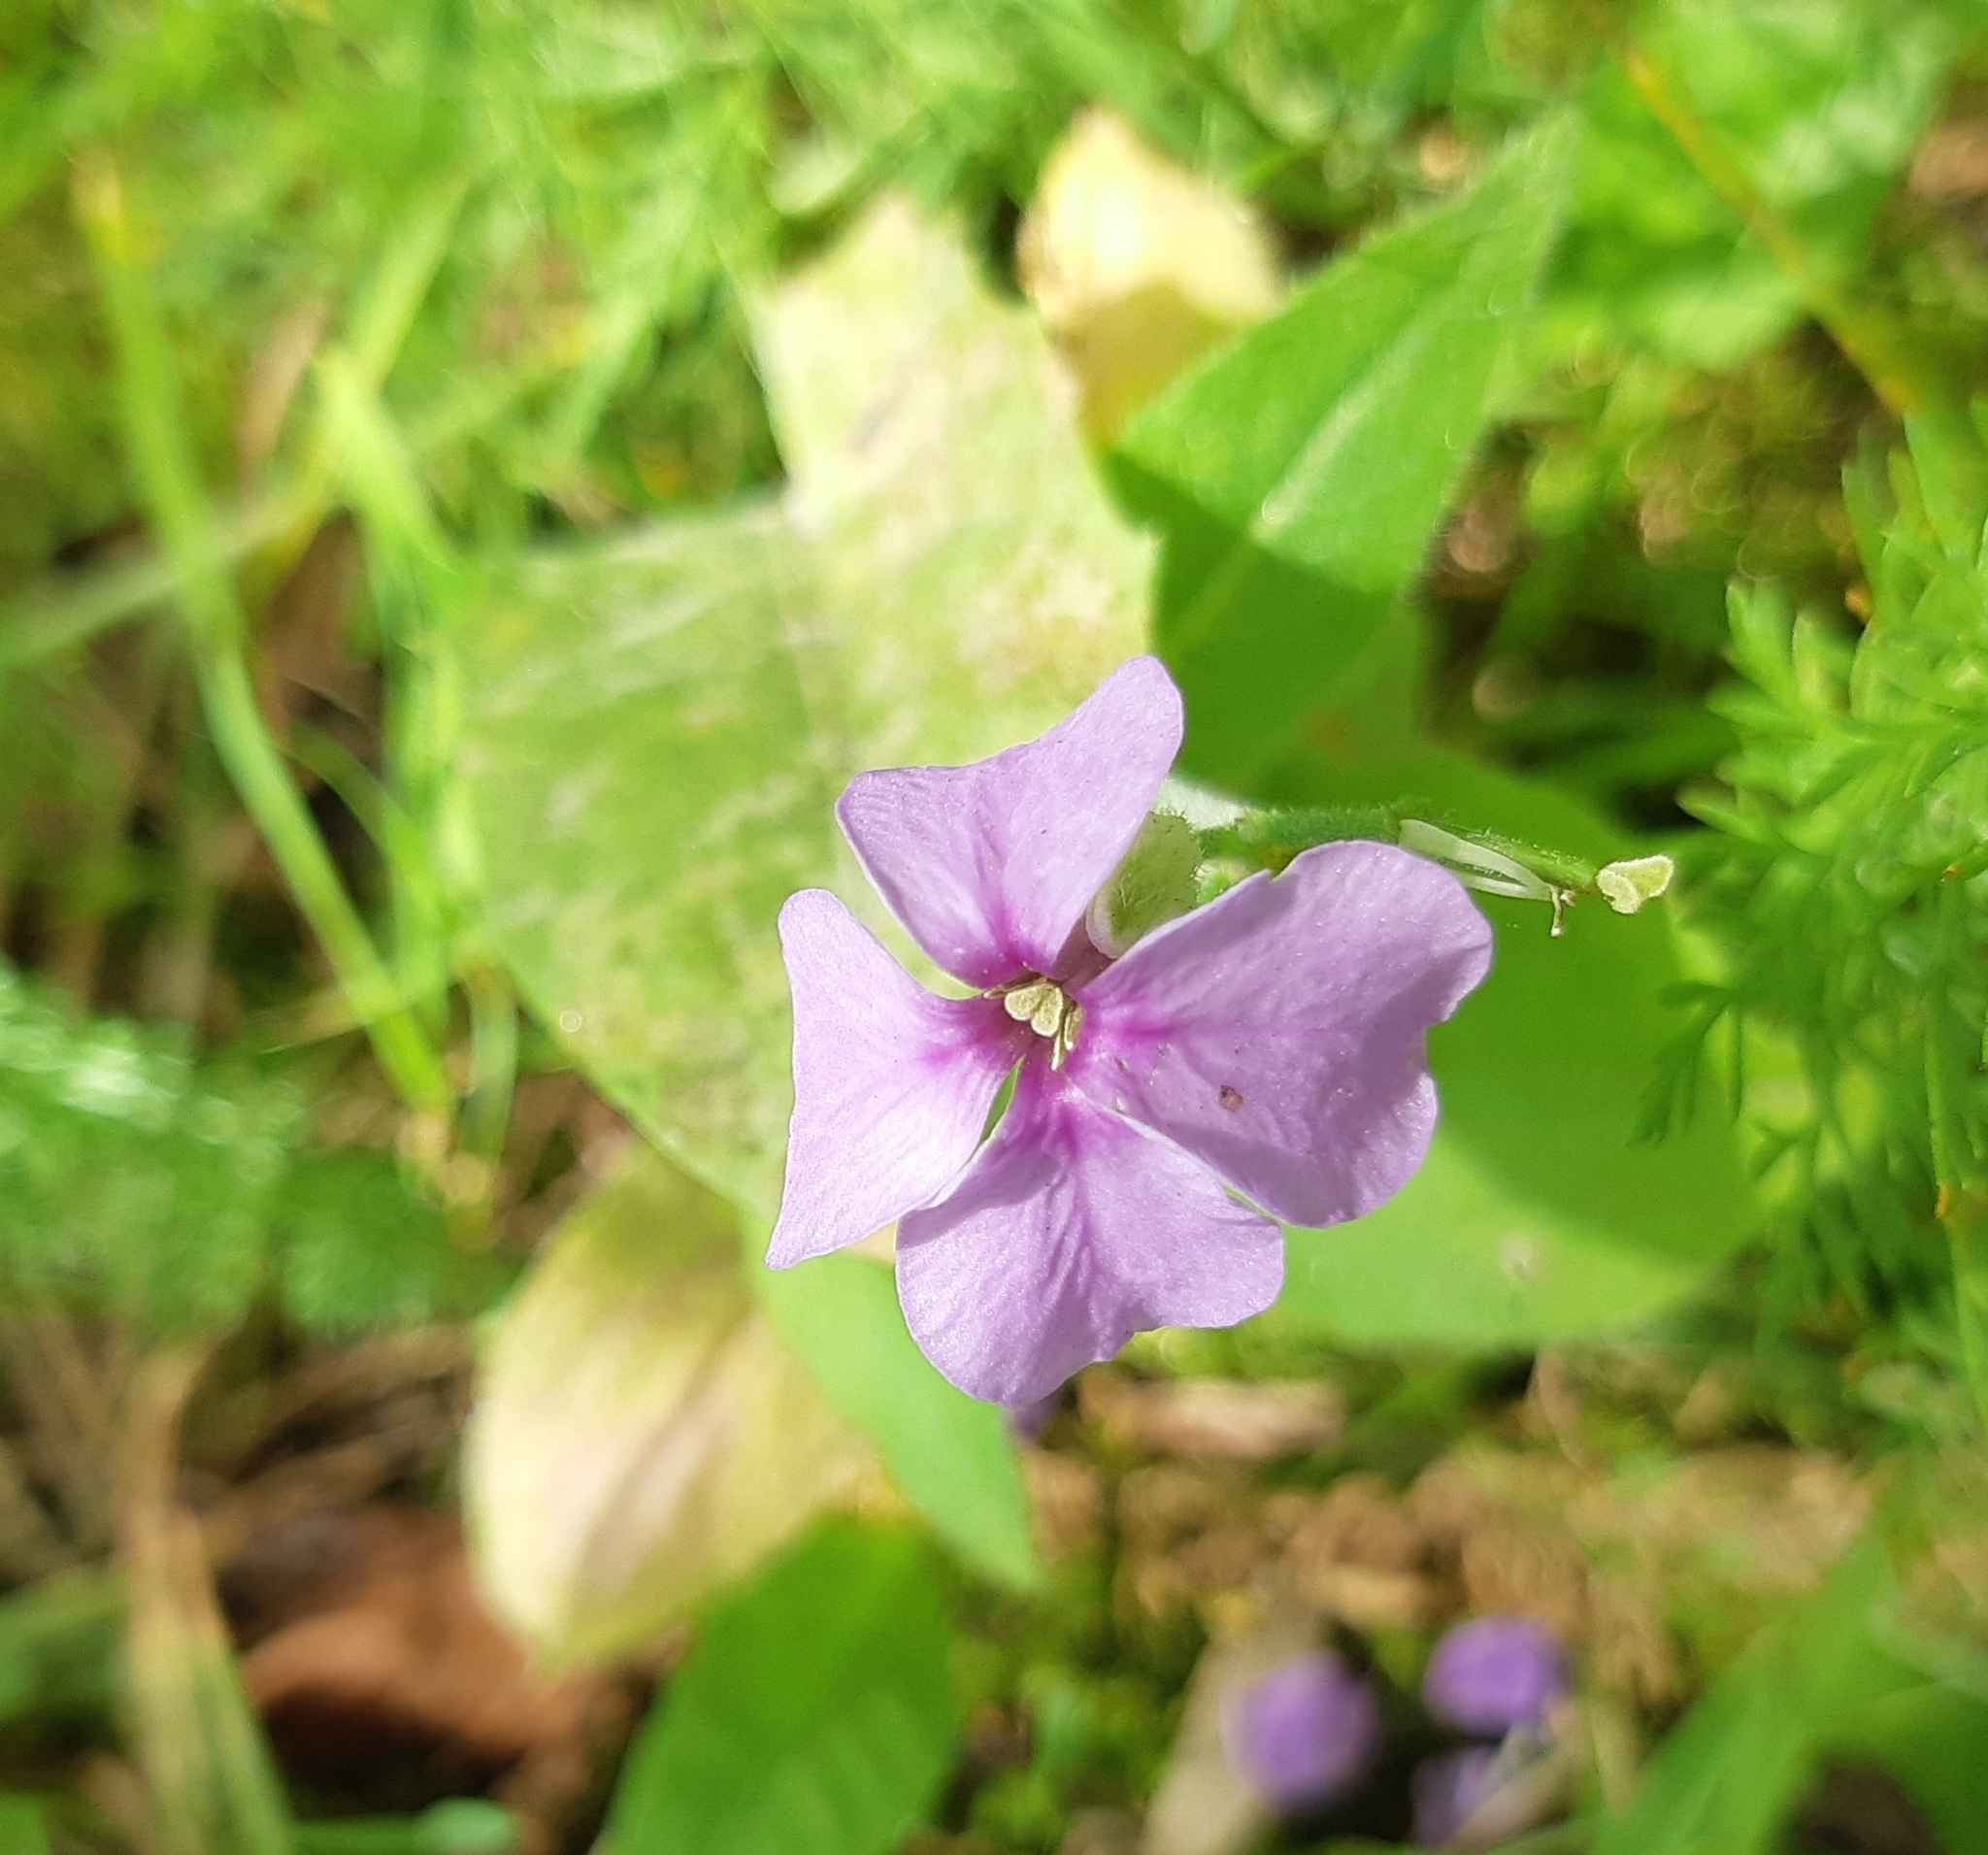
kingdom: Plantae
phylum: Tracheophyta
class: Magnoliopsida
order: Brassicales
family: Brassicaceae
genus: Hesperis
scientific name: Hesperis matronalis
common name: Dame's-violet
